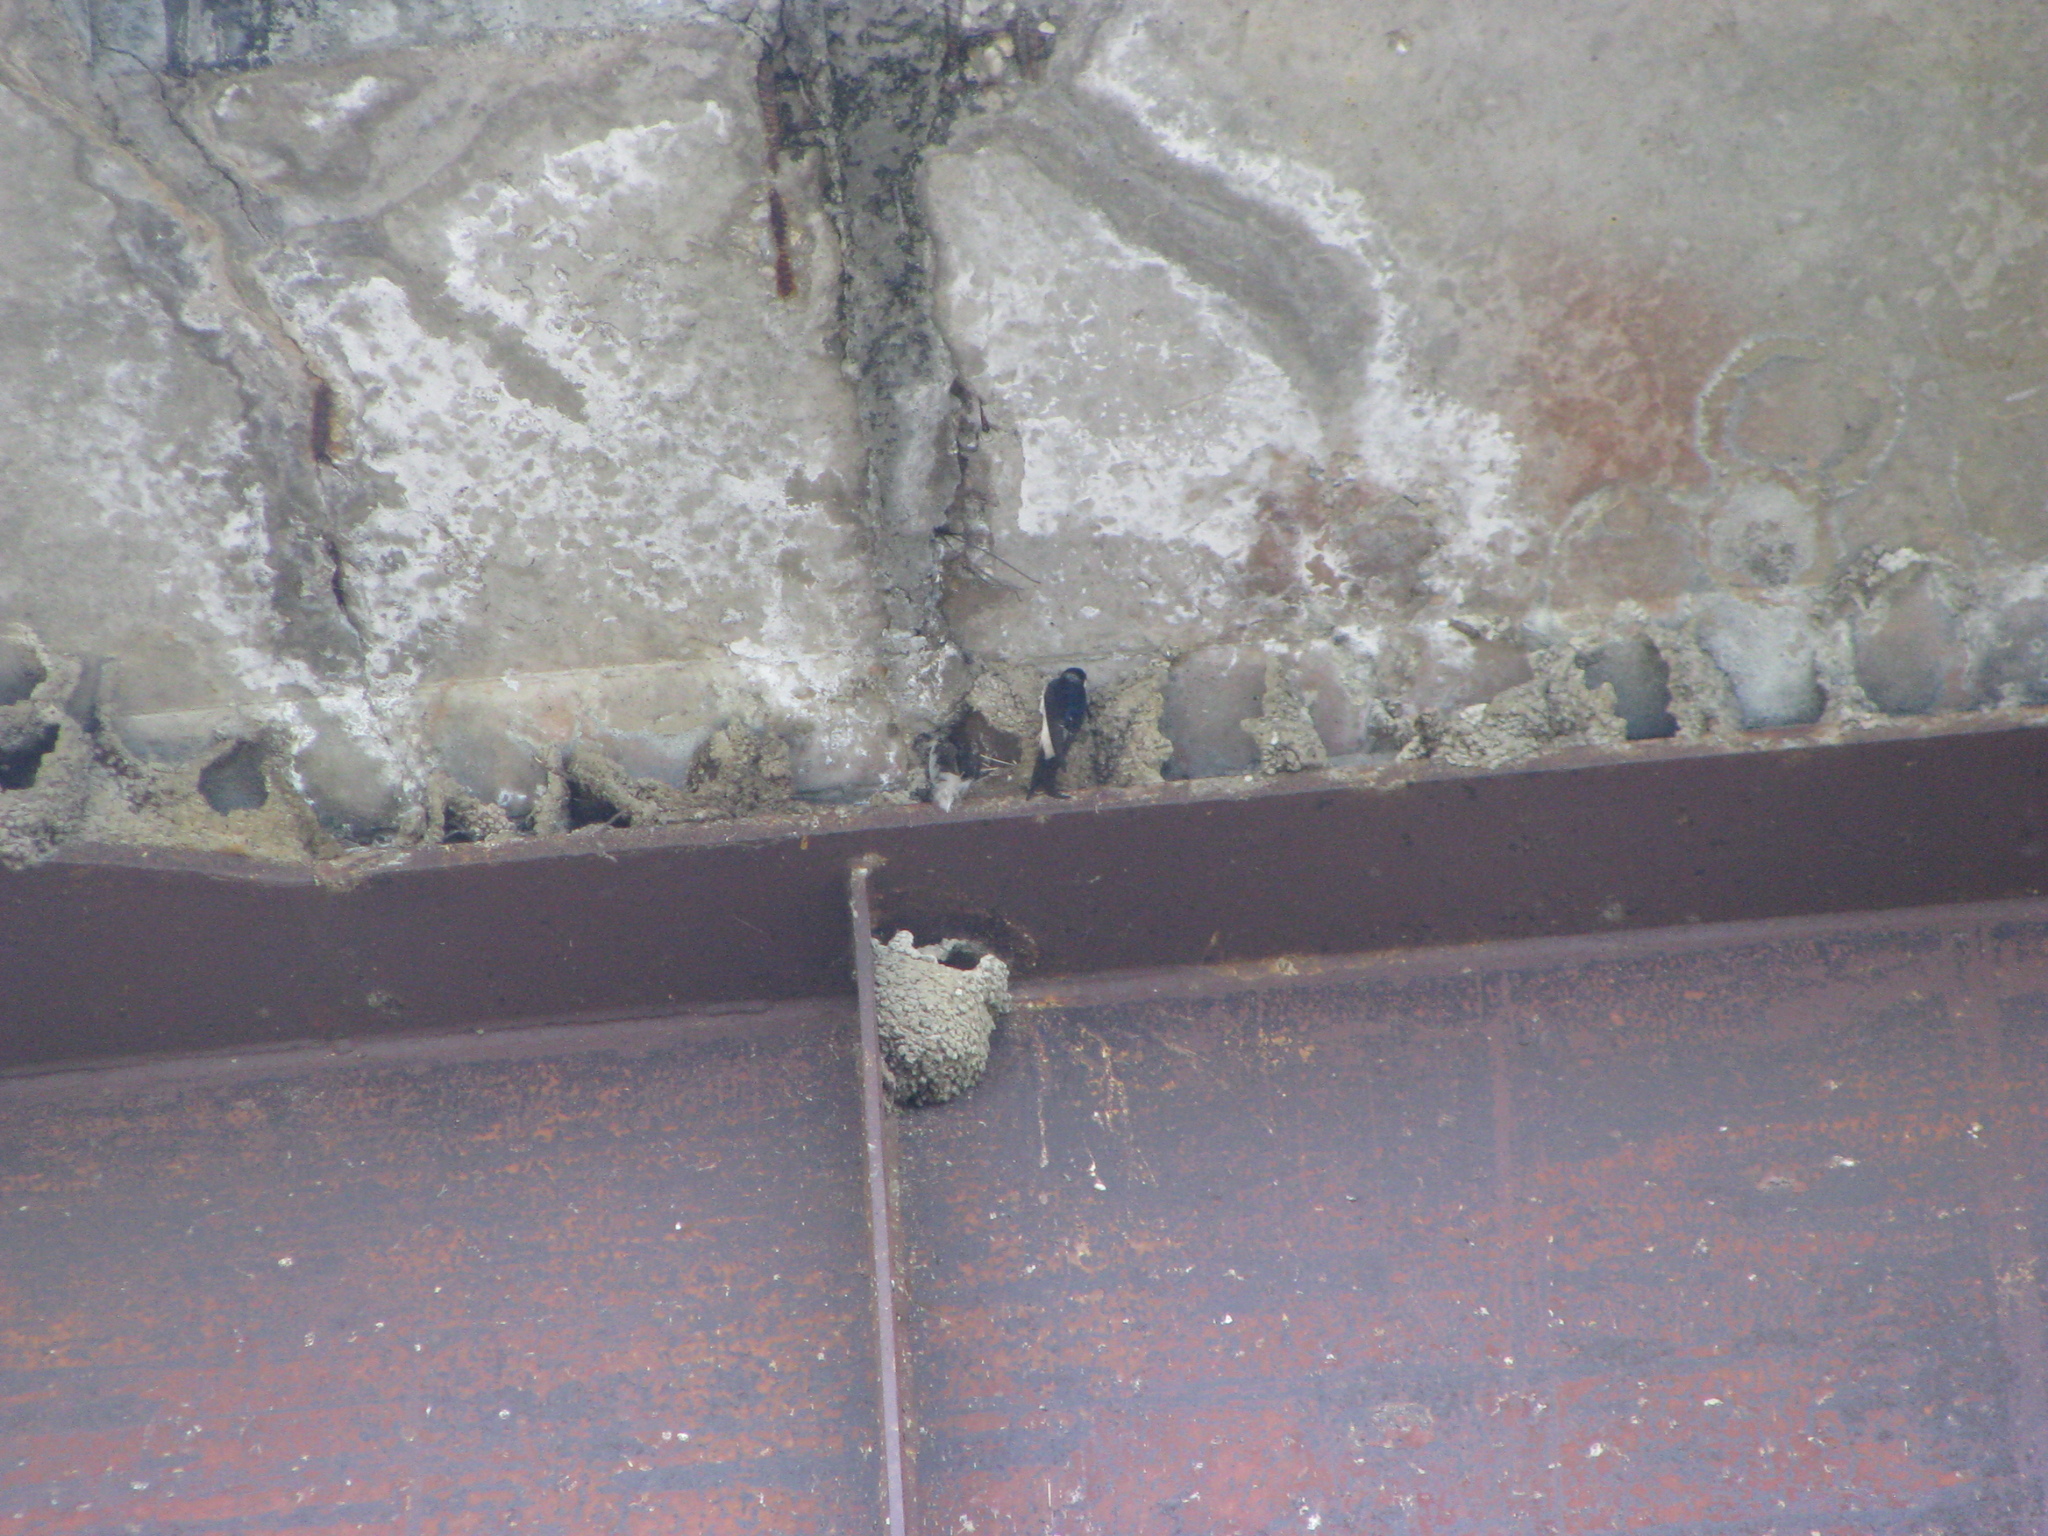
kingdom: Animalia
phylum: Chordata
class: Aves
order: Passeriformes
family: Hirundinidae
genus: Delichon
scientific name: Delichon urbicum
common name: Common house martin
